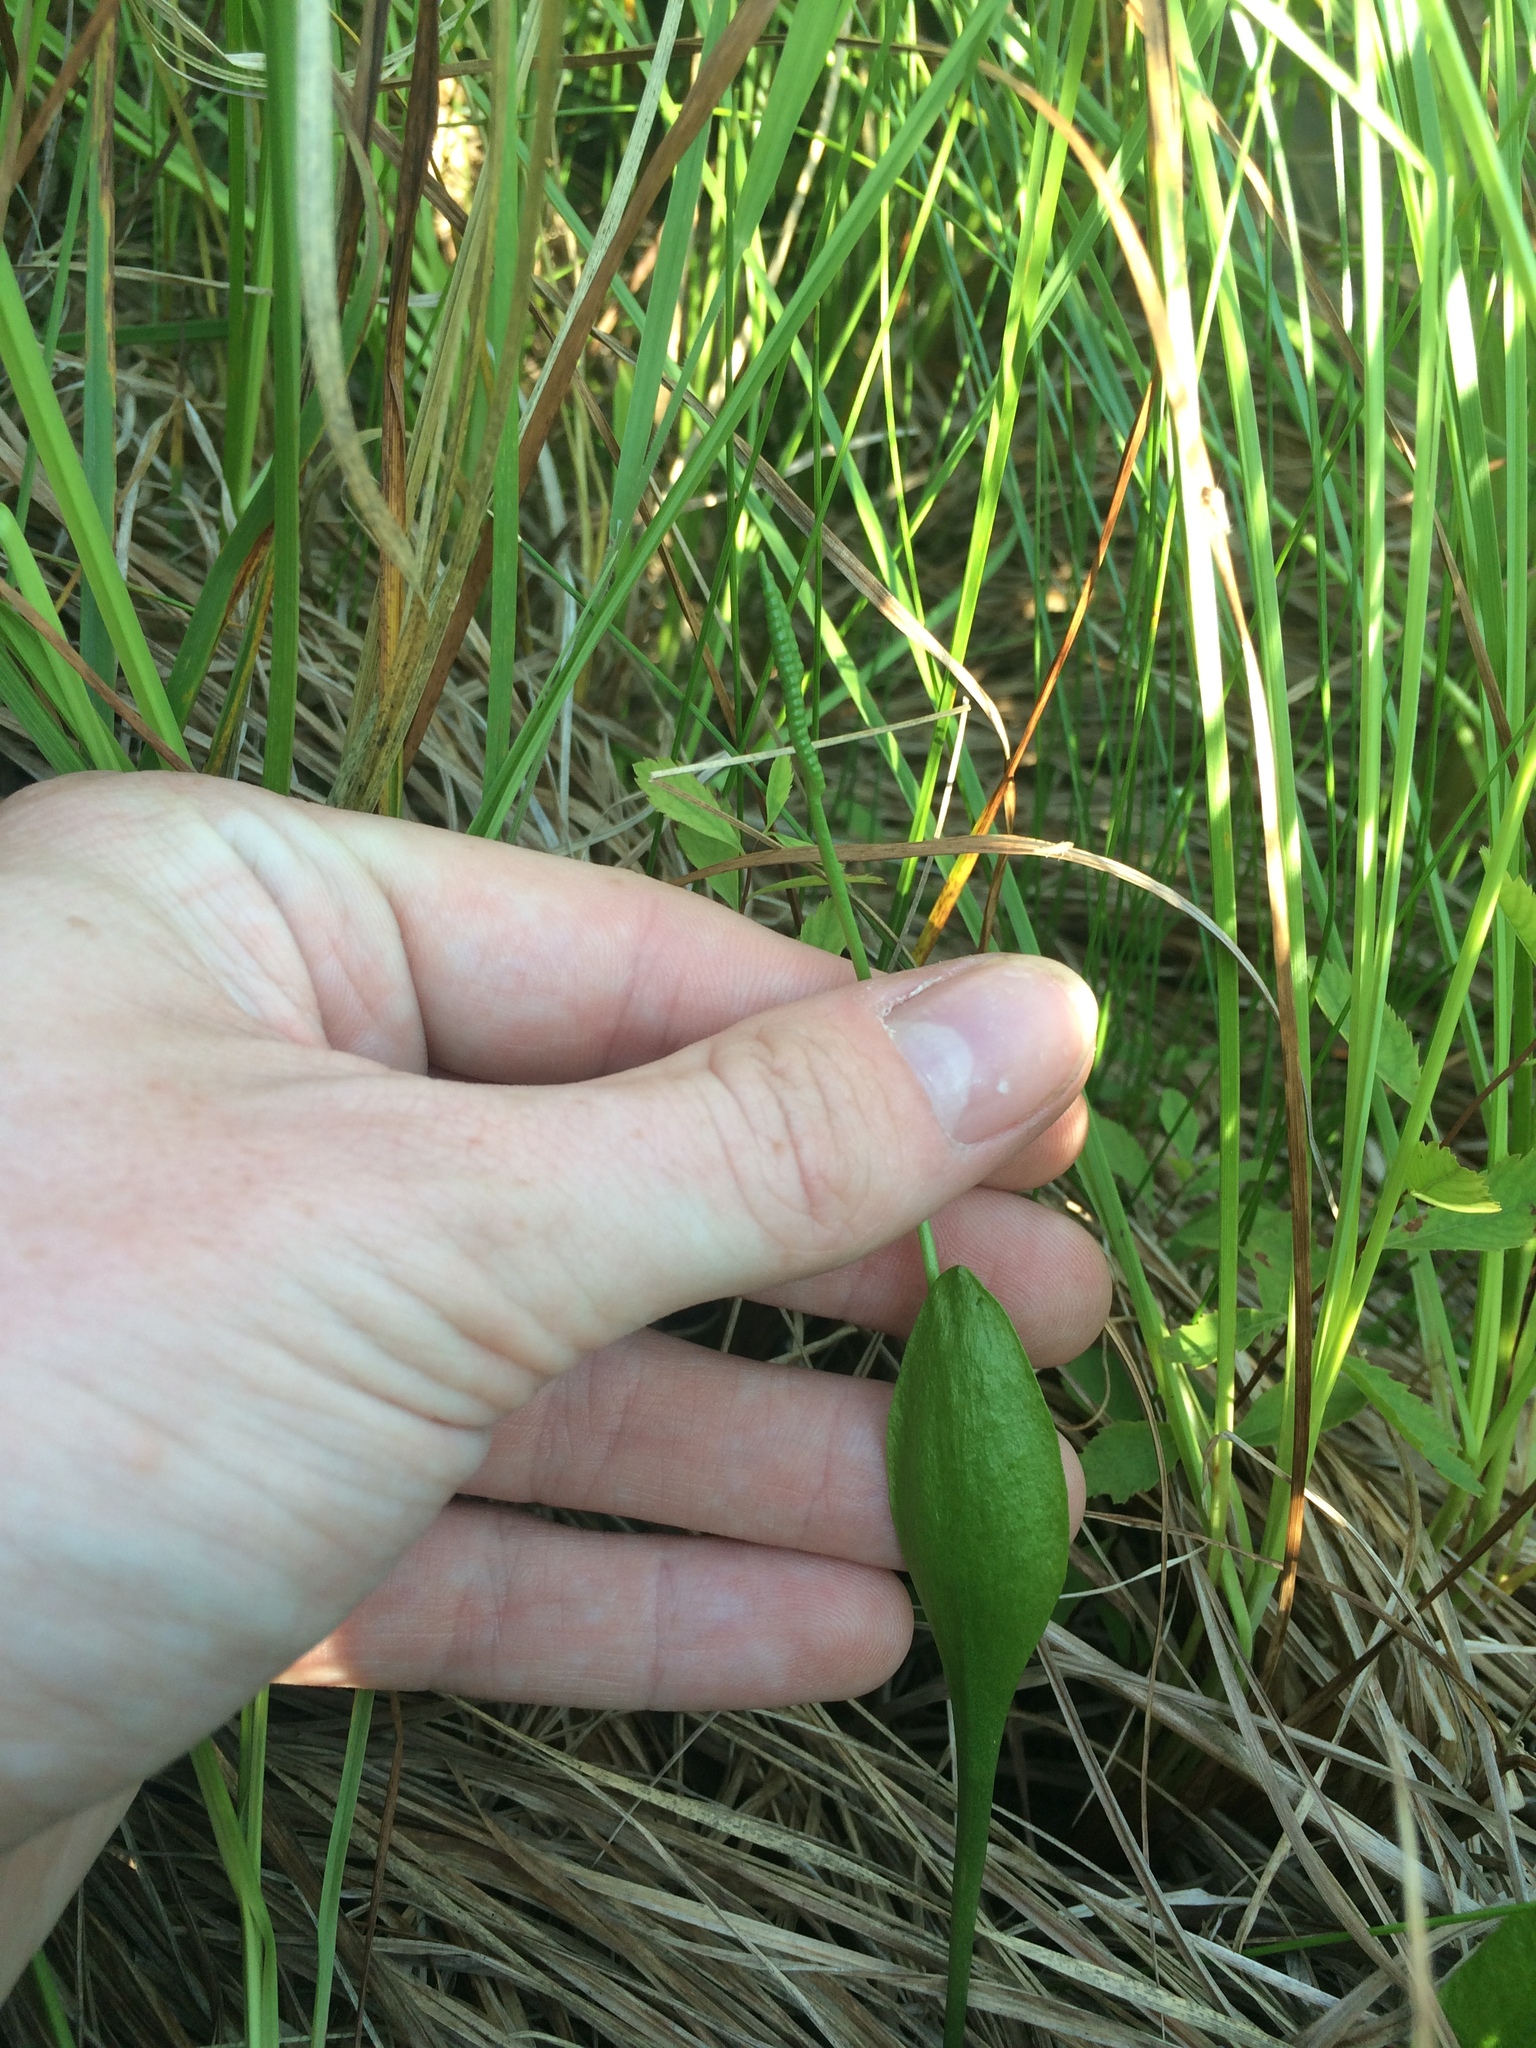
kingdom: Plantae
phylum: Tracheophyta
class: Polypodiopsida
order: Ophioglossales
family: Ophioglossaceae
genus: Ophioglossum
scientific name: Ophioglossum pusillum
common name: Northern adder's-tongue
